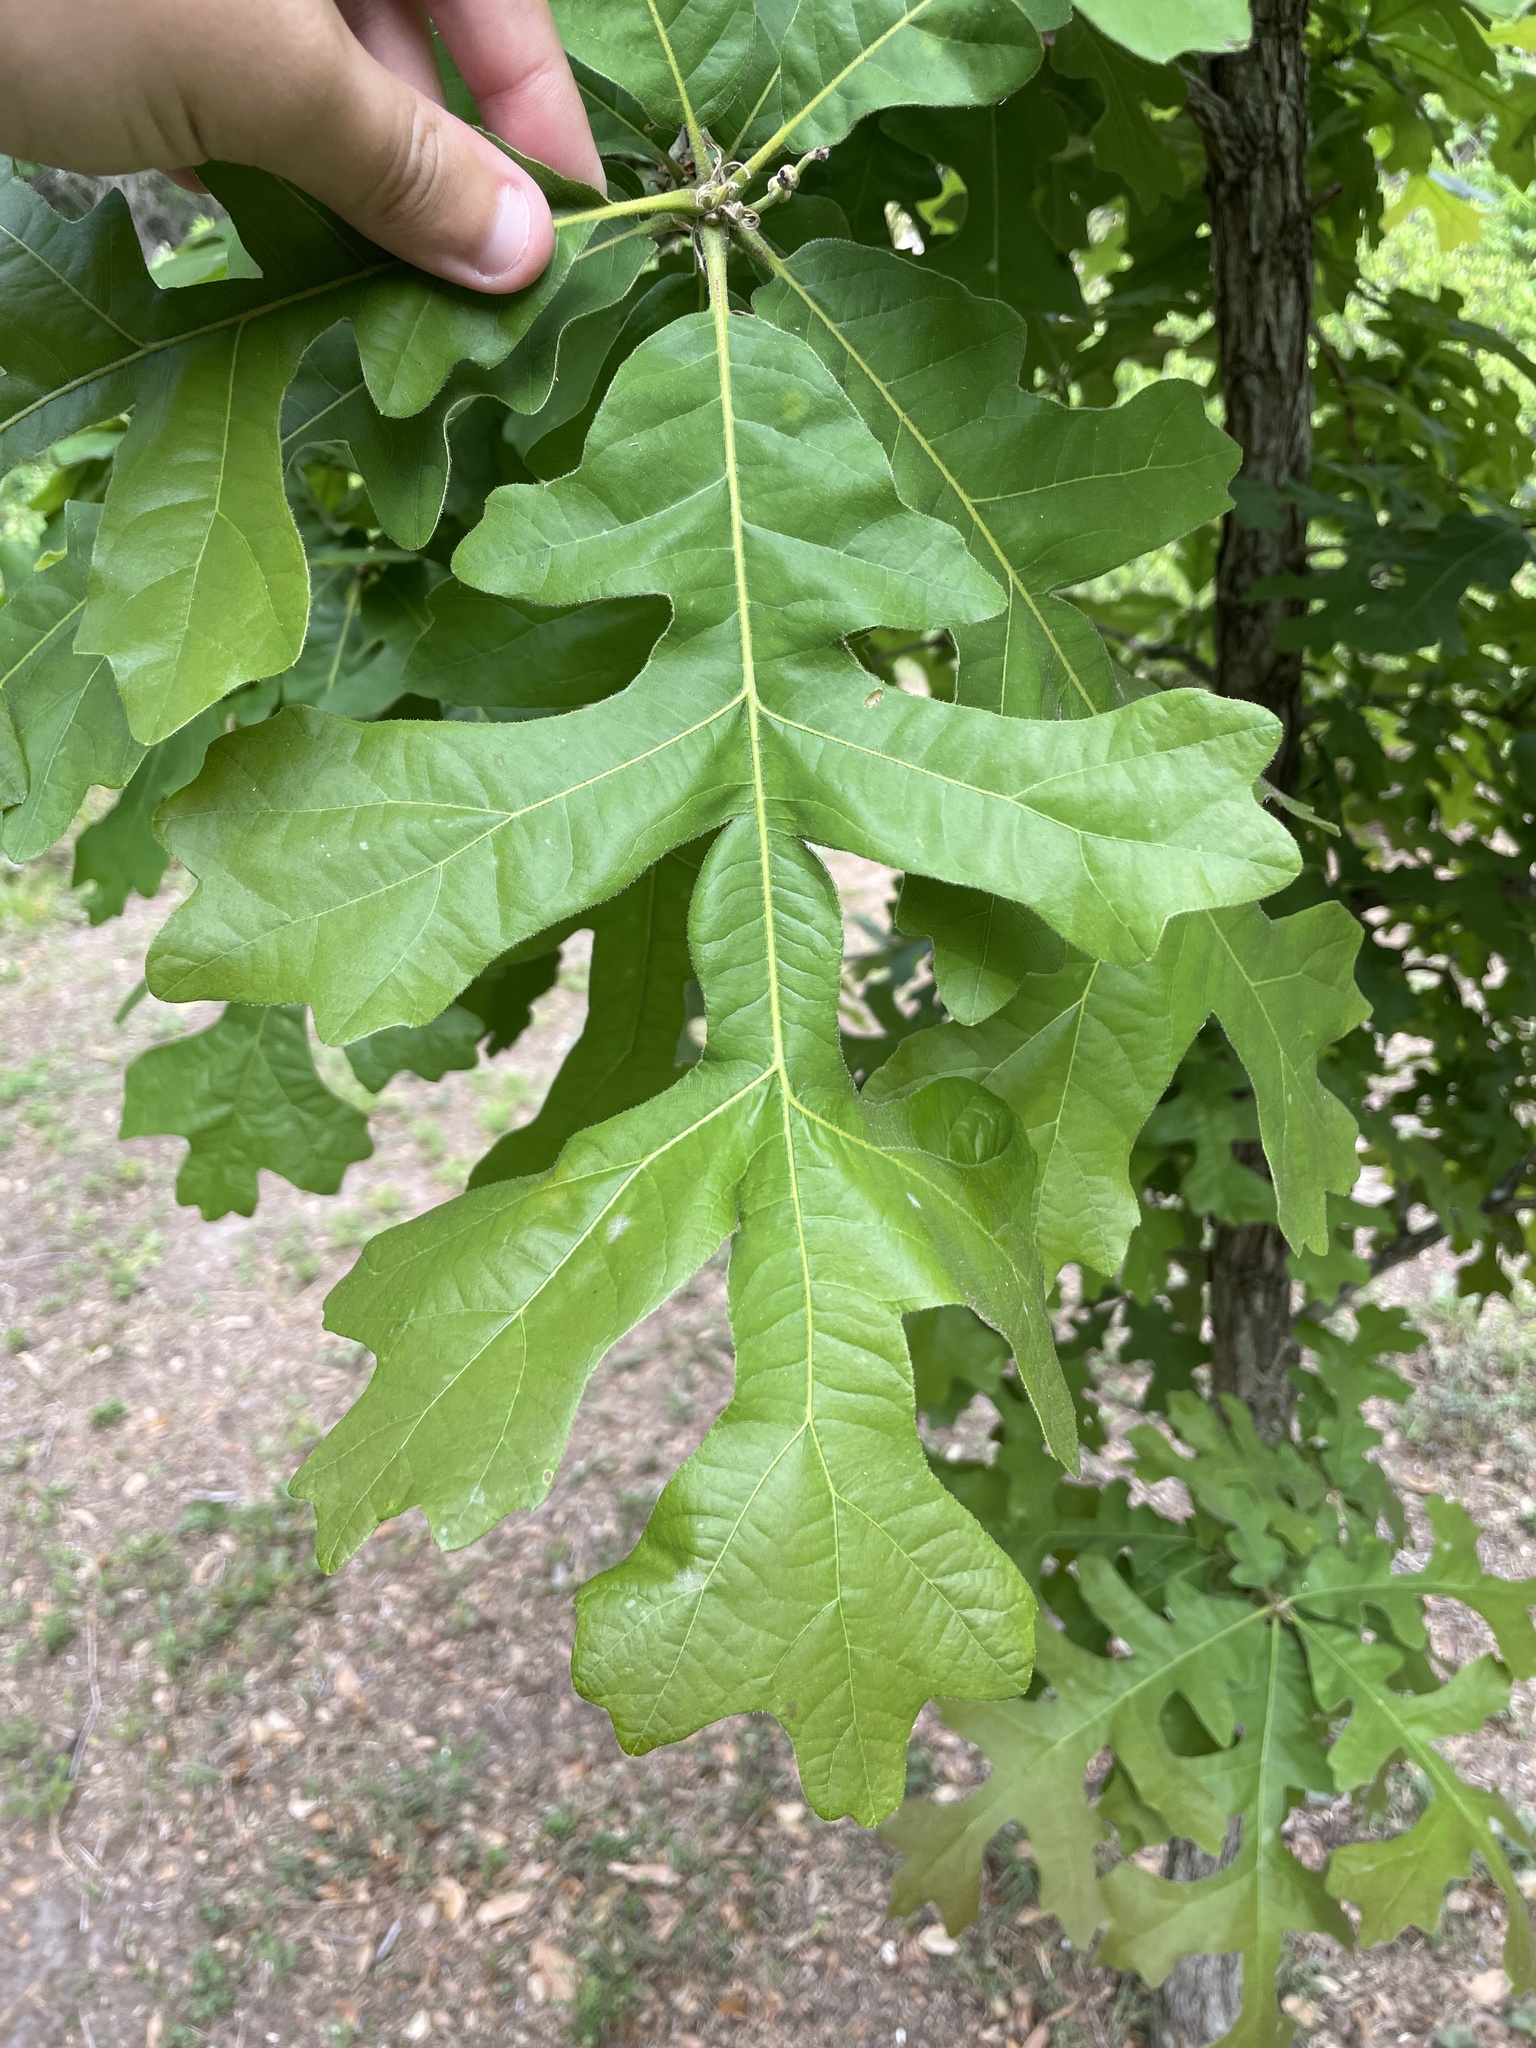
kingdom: Plantae
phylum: Tracheophyta
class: Magnoliopsida
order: Fagales
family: Fagaceae
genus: Quercus
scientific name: Quercus macrocarpa
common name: Bur oak
